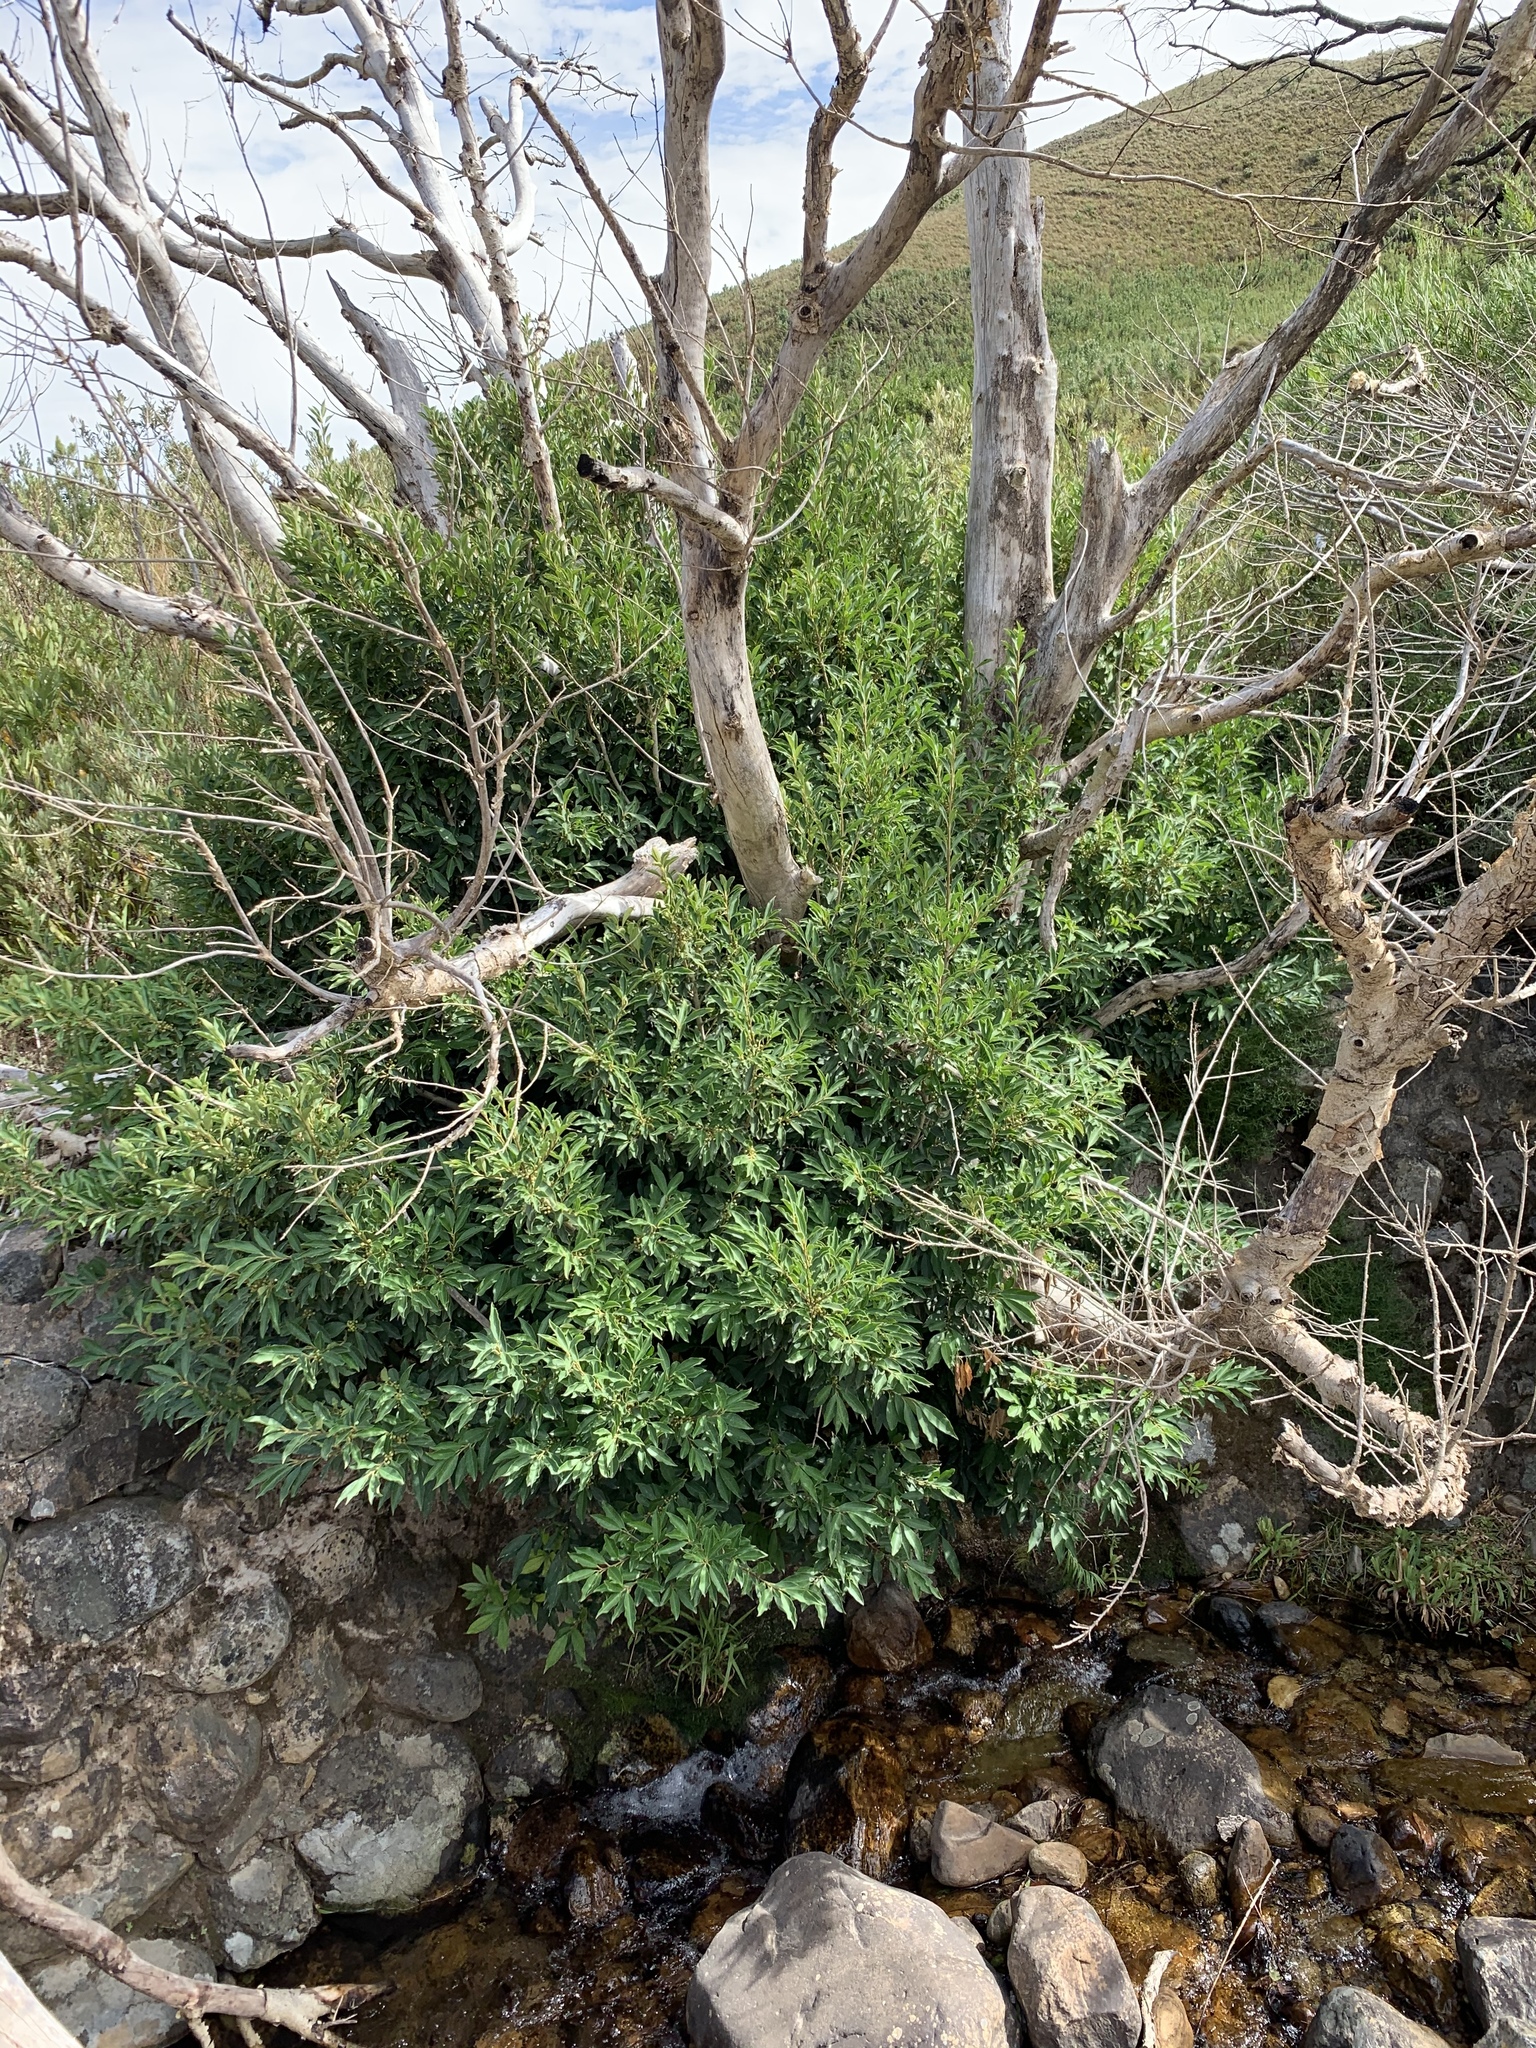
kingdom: Plantae
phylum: Tracheophyta
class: Magnoliopsida
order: Aquifoliales
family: Aquifoliaceae
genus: Ilex
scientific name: Ilex mitis
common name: African holly
